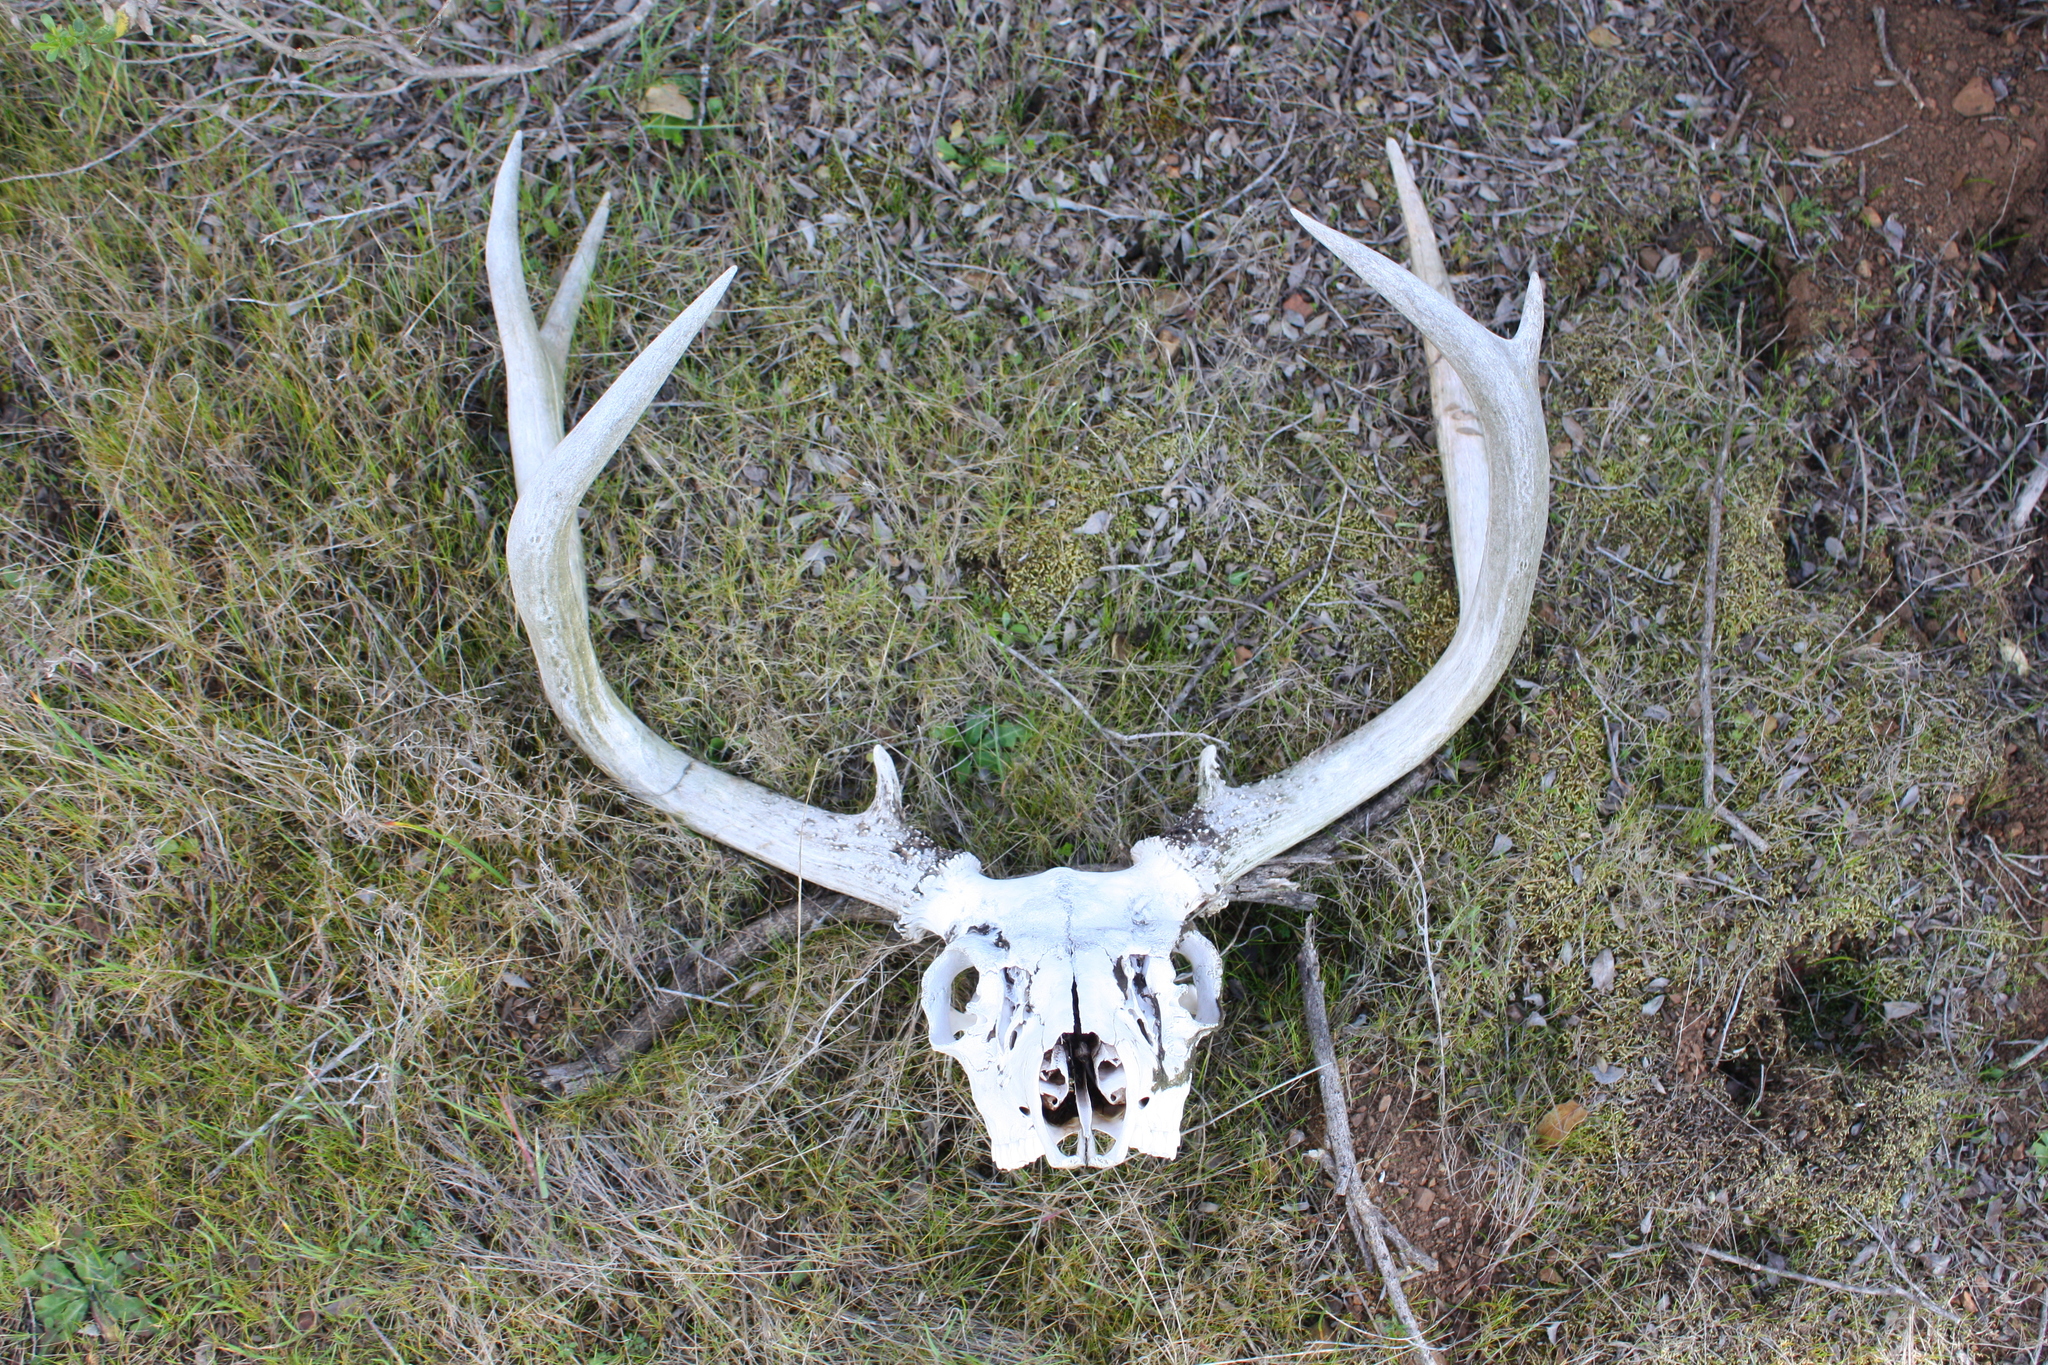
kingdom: Animalia
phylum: Chordata
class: Mammalia
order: Artiodactyla
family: Cervidae
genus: Odocoileus
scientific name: Odocoileus hemionus
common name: Mule deer
